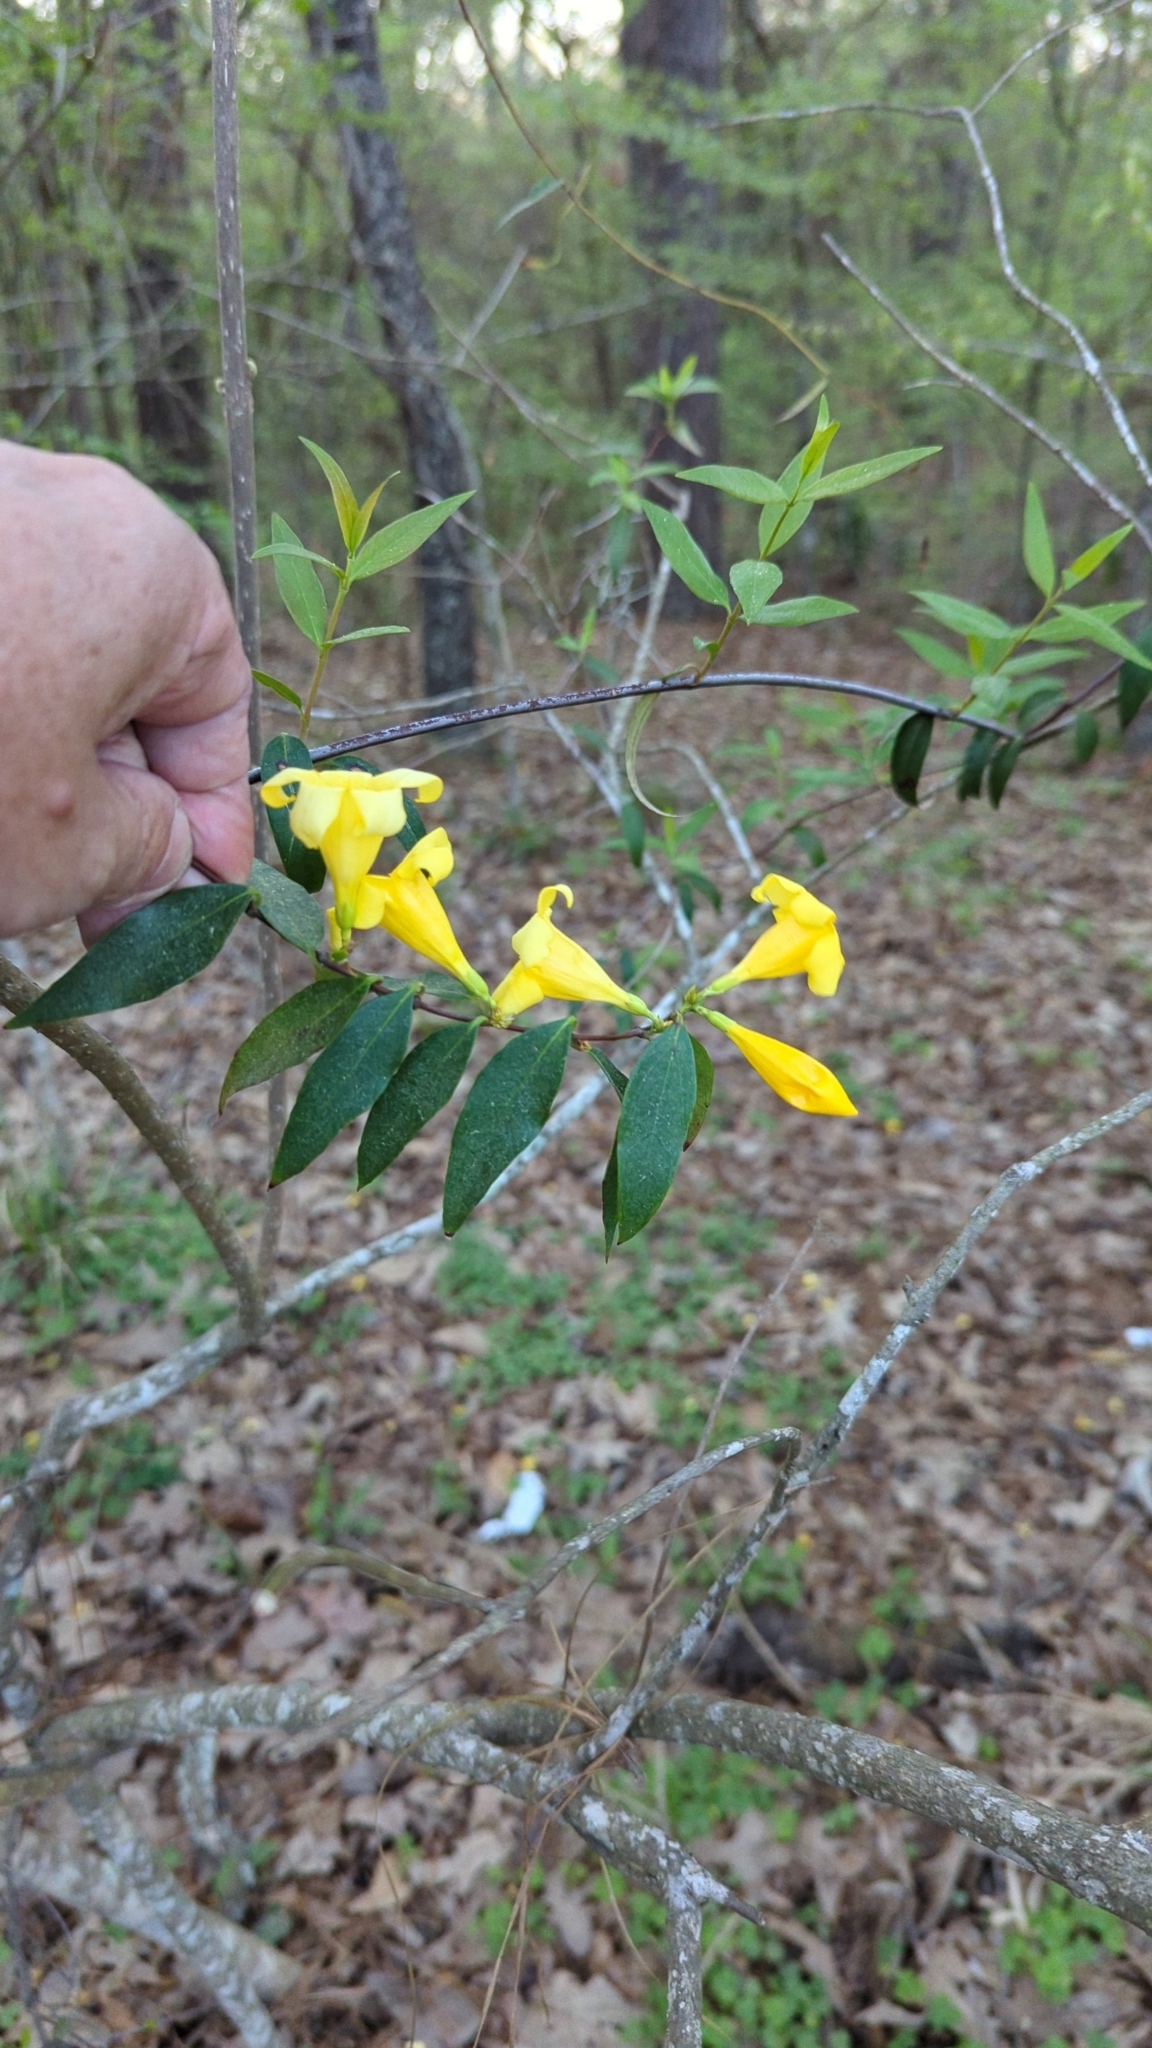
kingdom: Plantae
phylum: Tracheophyta
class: Magnoliopsida
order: Gentianales
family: Gelsemiaceae
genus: Gelsemium
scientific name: Gelsemium sempervirens
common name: Carolina-jasmine
